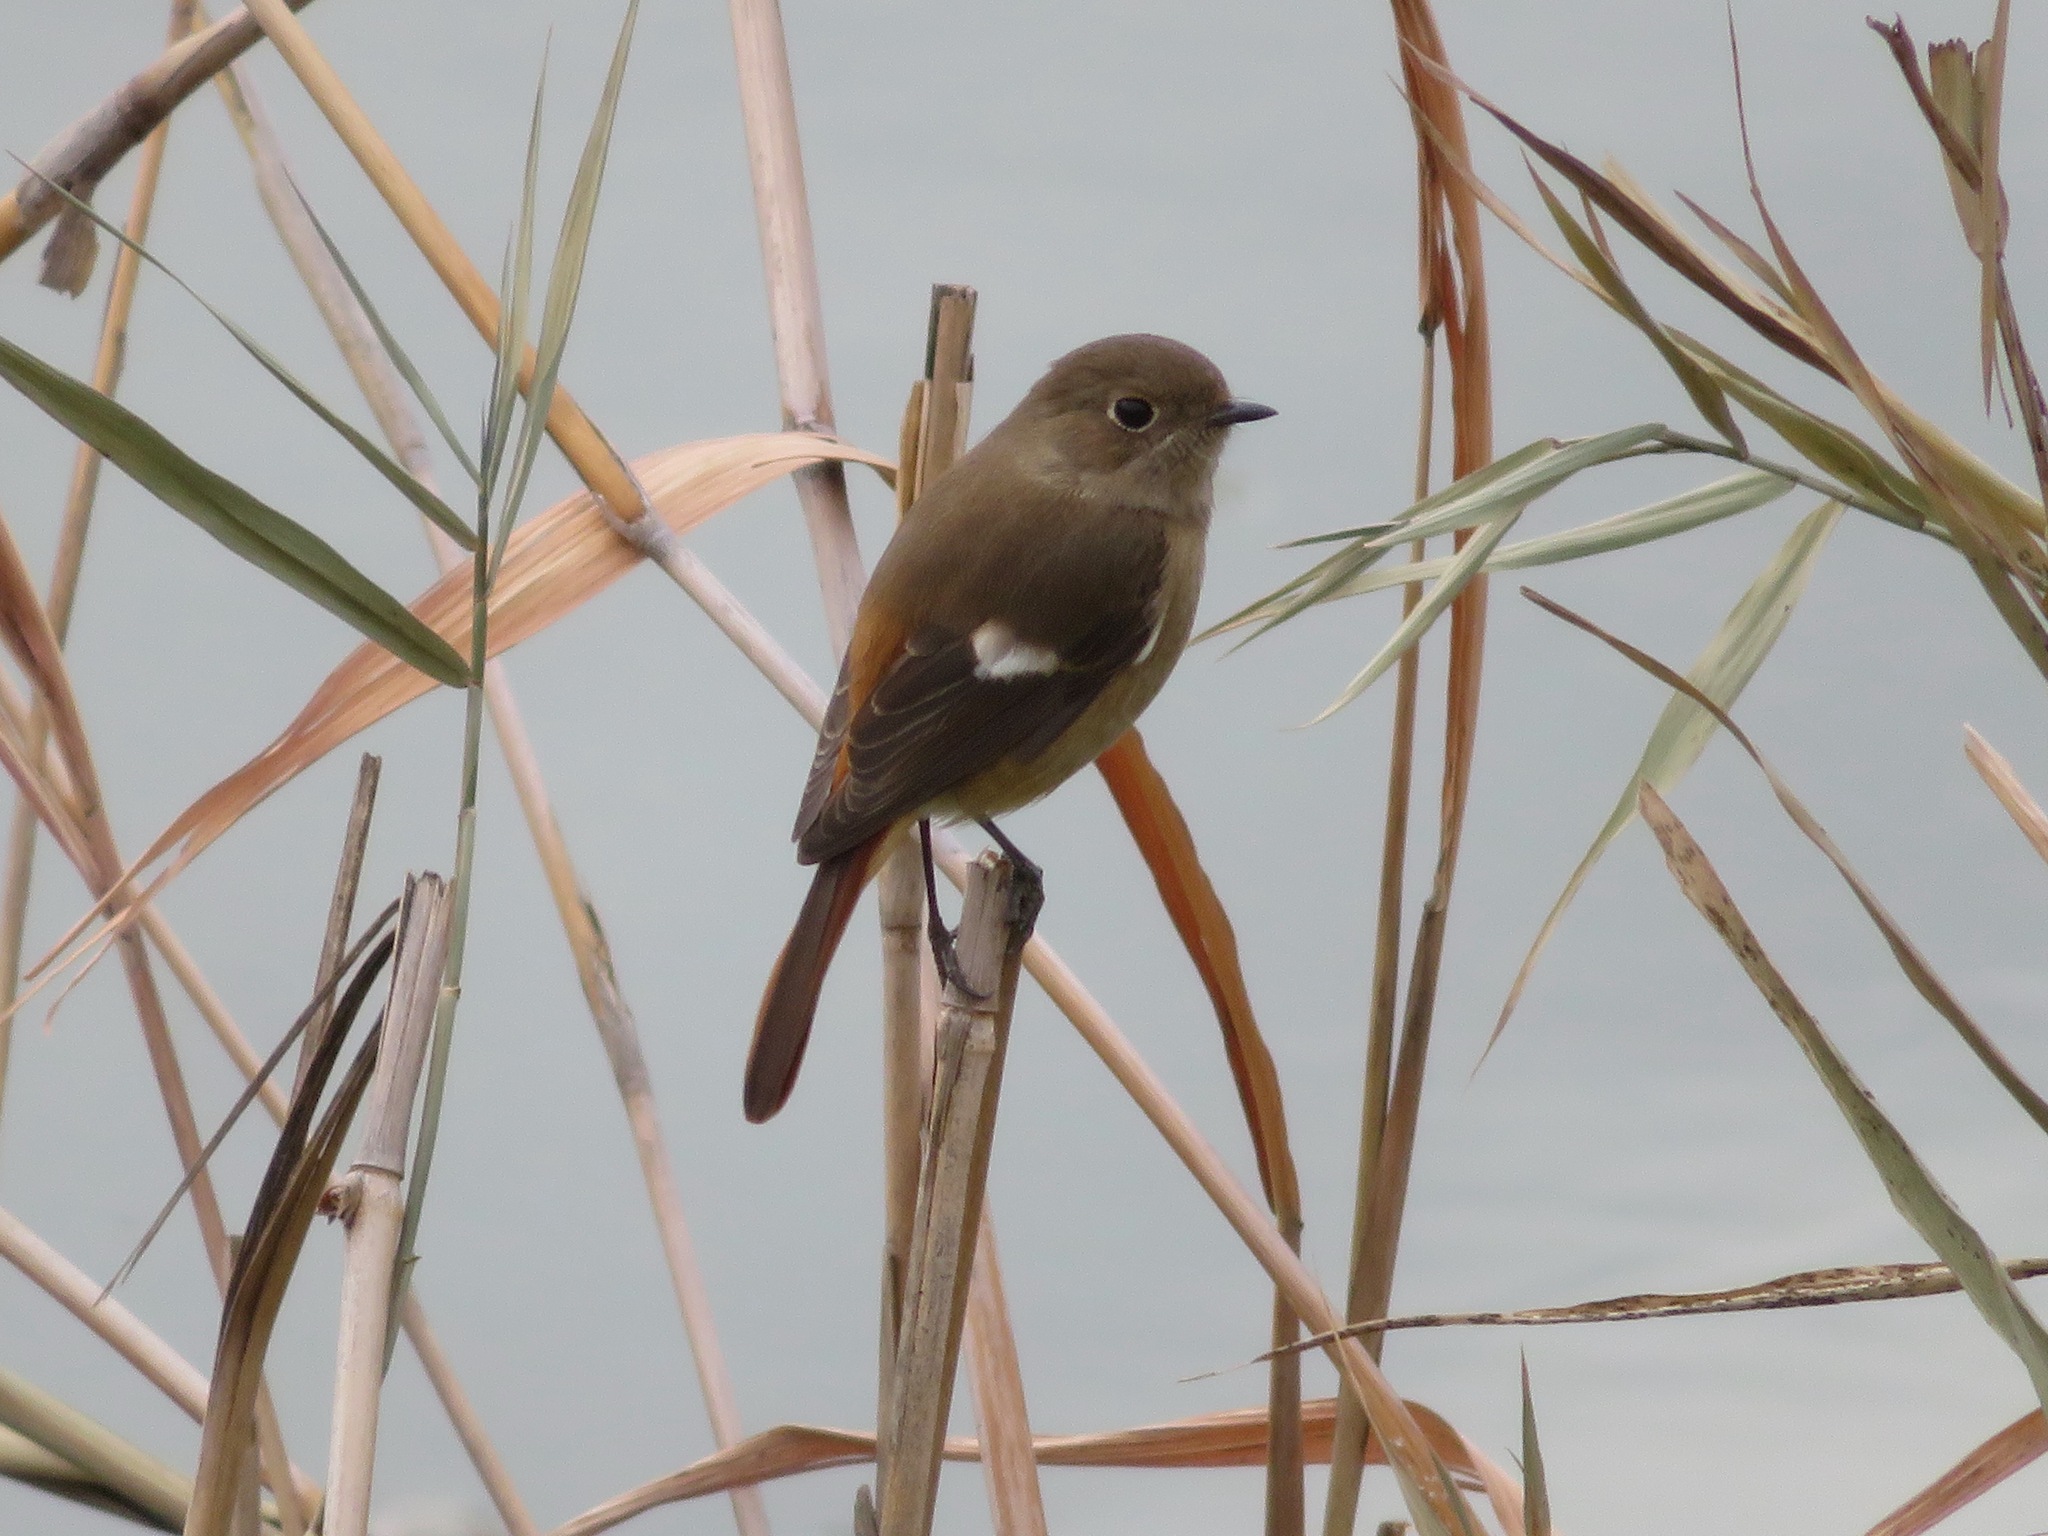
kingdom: Animalia
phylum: Chordata
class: Aves
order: Passeriformes
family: Muscicapidae
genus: Phoenicurus
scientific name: Phoenicurus auroreus
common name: Daurian redstart
